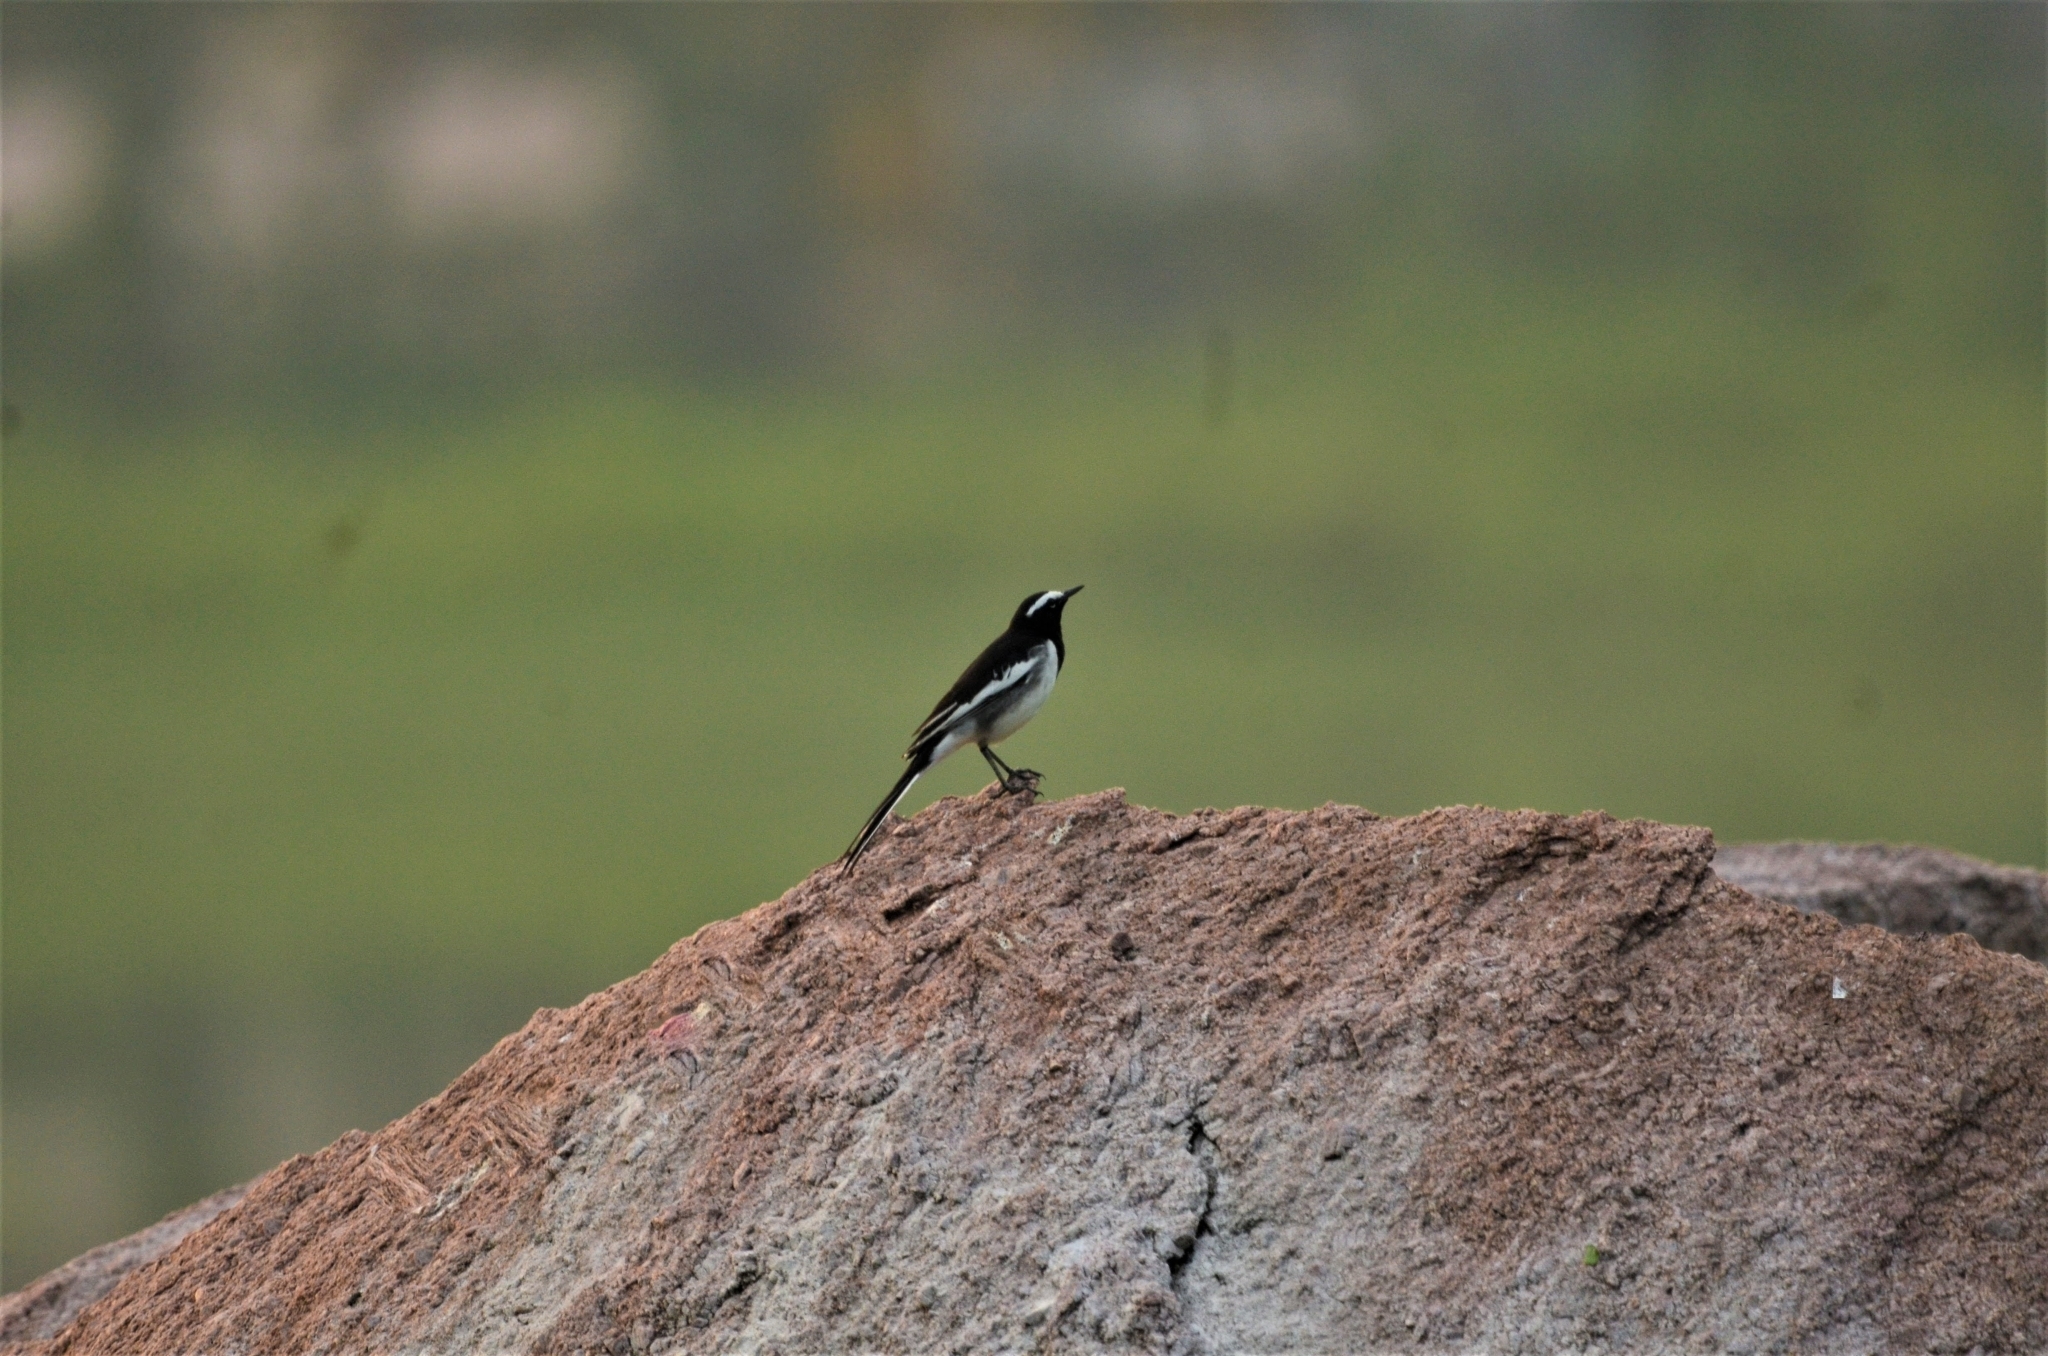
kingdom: Animalia
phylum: Chordata
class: Aves
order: Passeriformes
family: Motacillidae
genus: Motacilla
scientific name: Motacilla maderaspatensis
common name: White-browed wagtail
